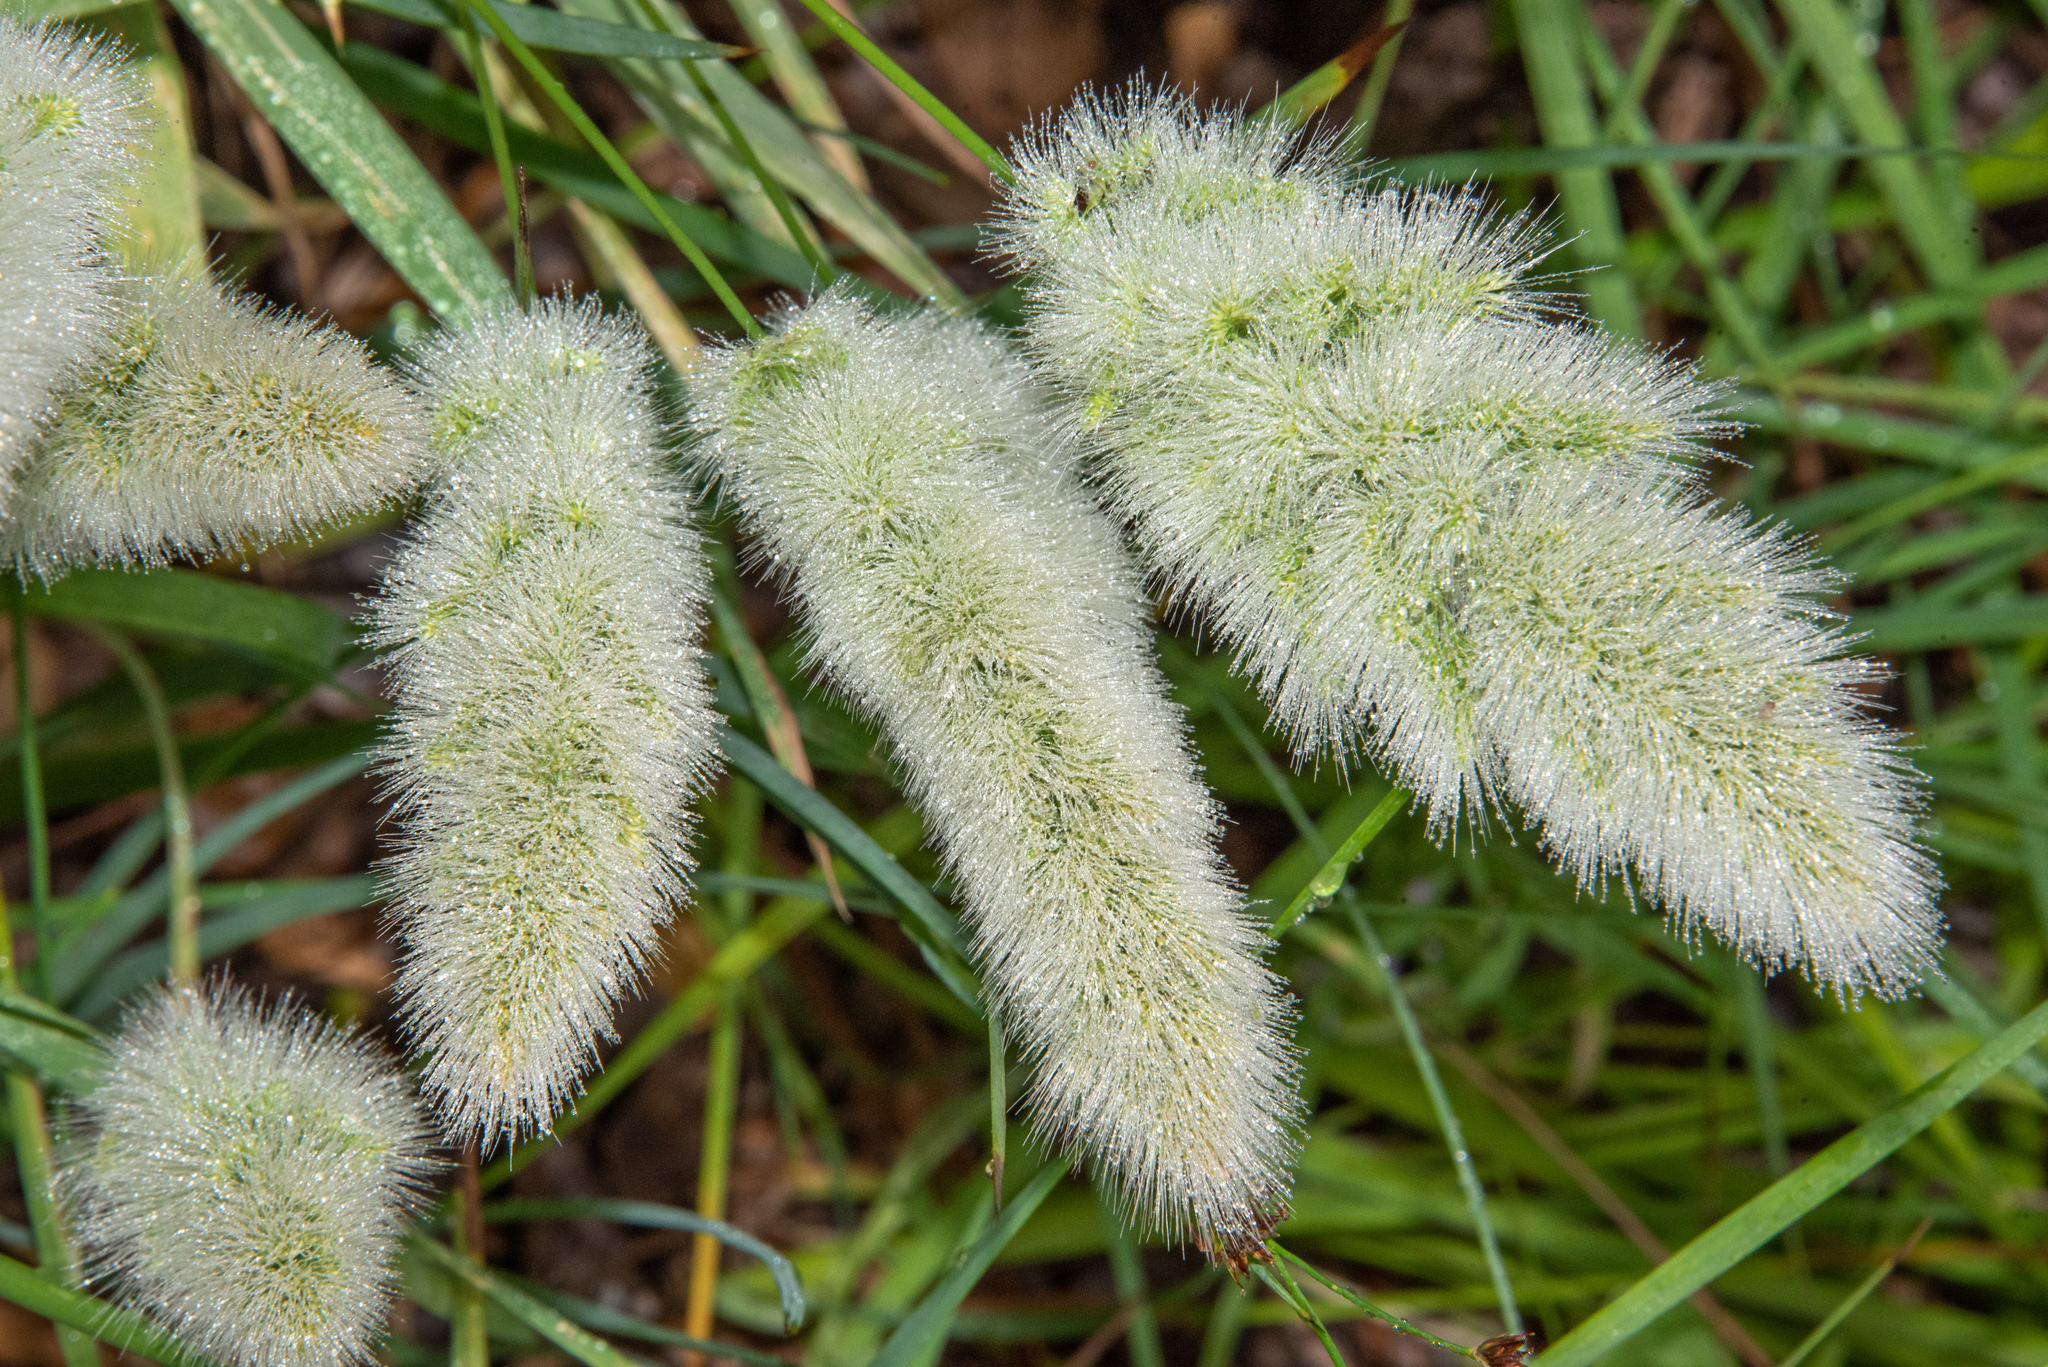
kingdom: Plantae
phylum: Tracheophyta
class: Liliopsida
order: Poales
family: Poaceae
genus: Polypogon
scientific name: Polypogon monspeliensis
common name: Annual rabbitsfoot grass
